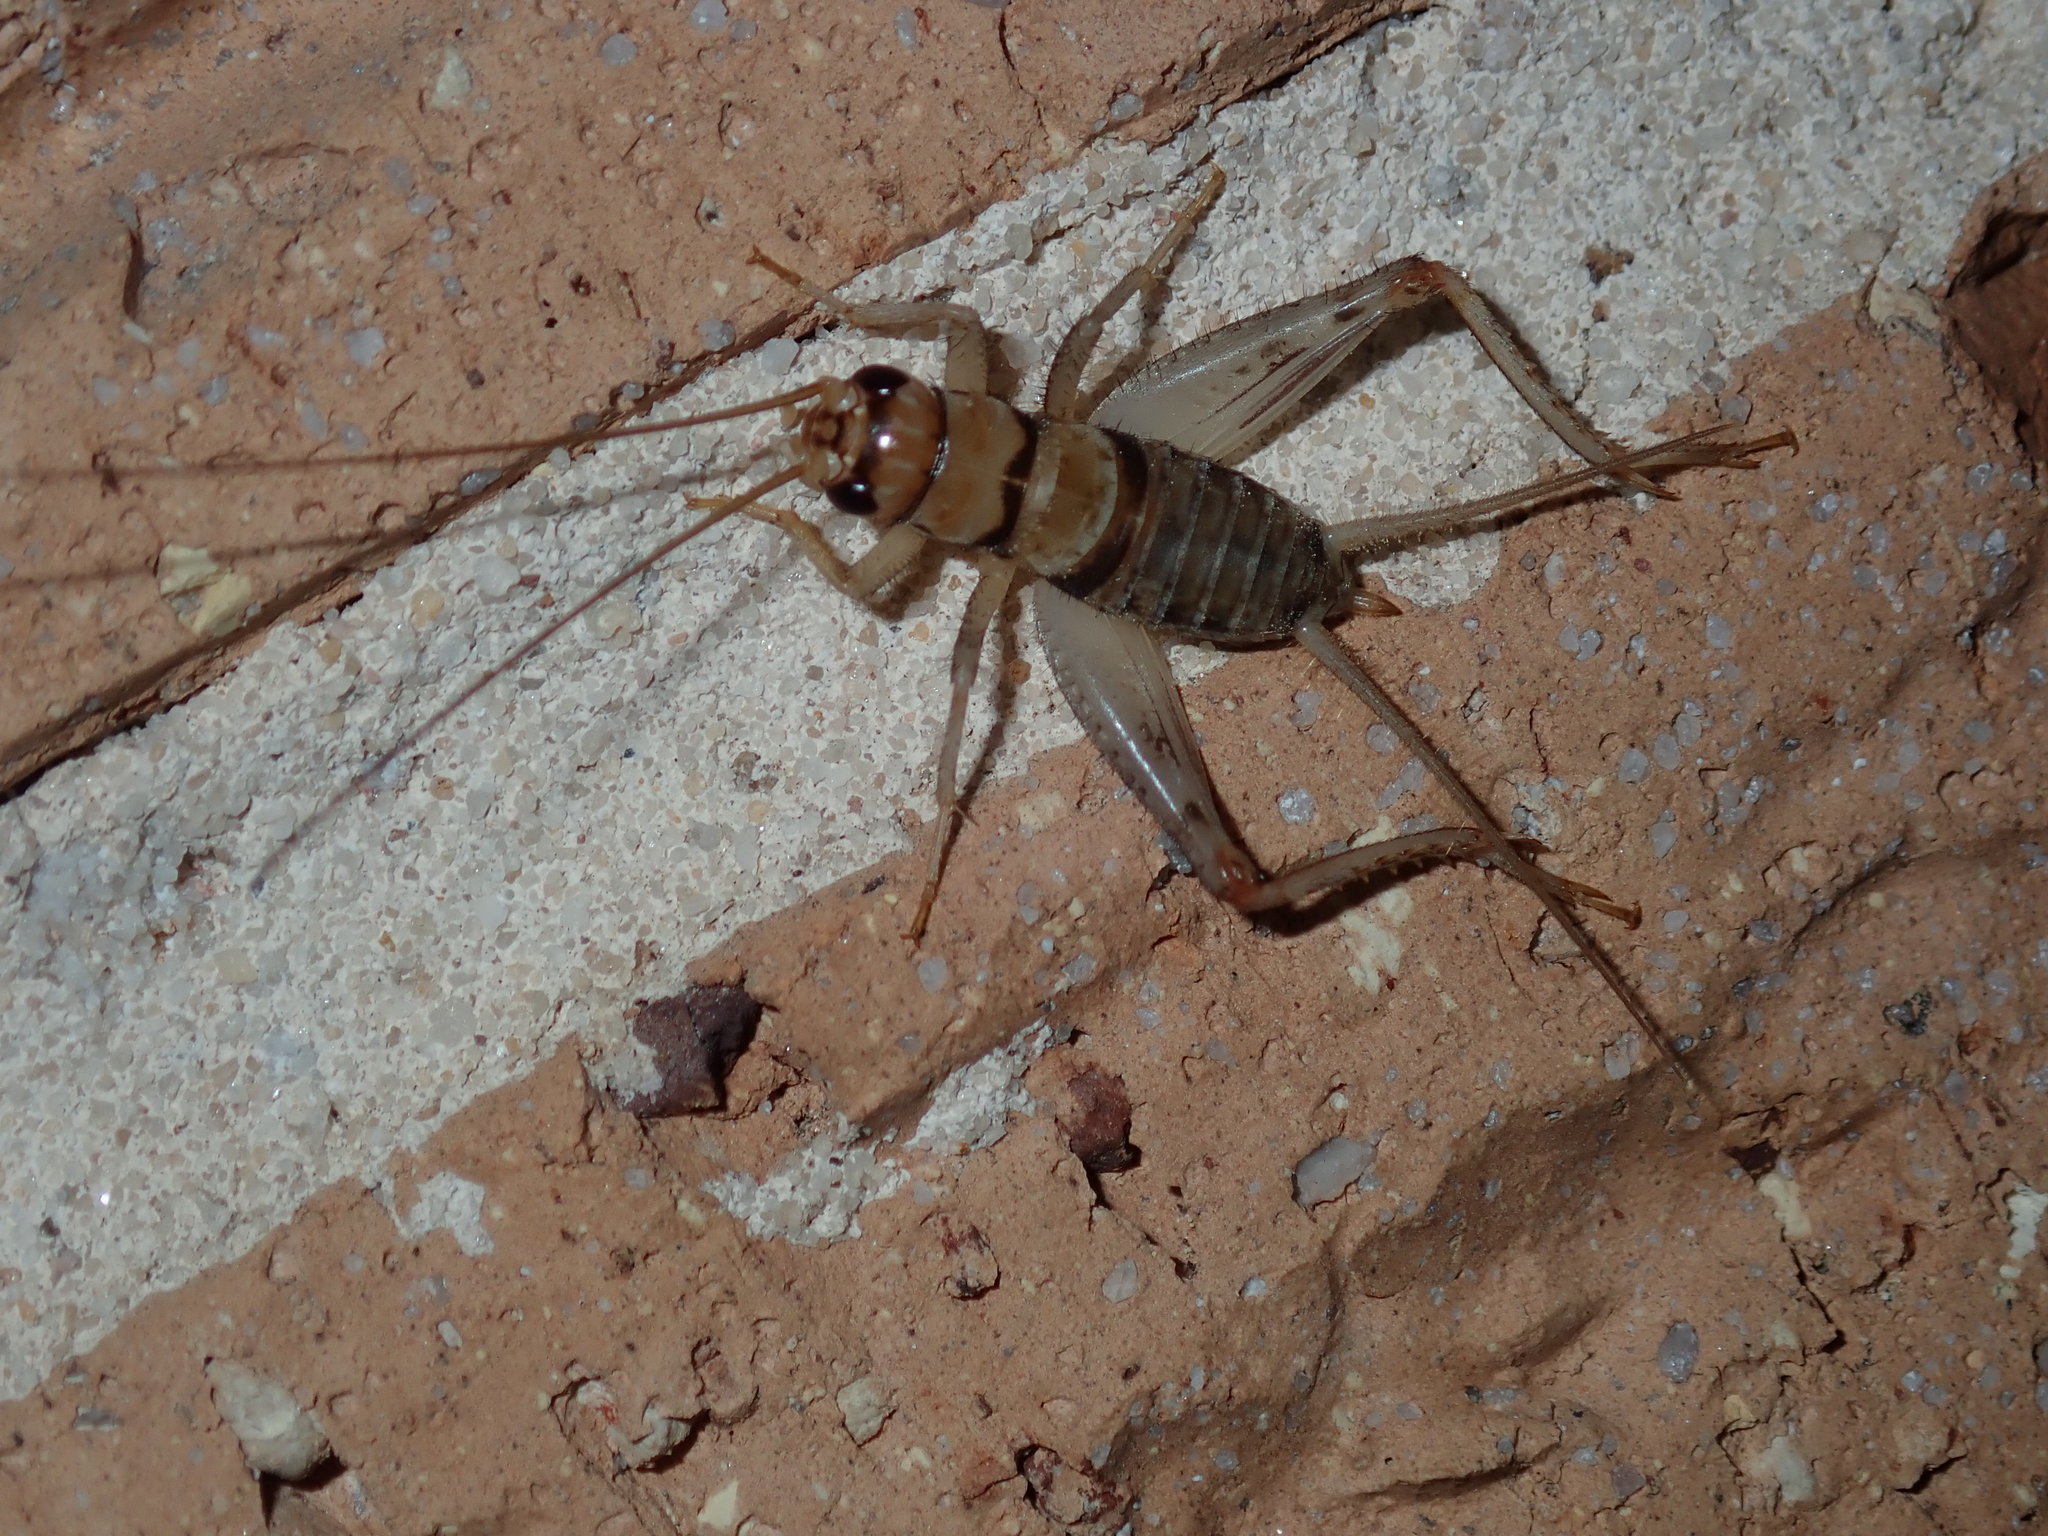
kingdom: Animalia
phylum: Arthropoda
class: Insecta
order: Orthoptera
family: Gryllidae
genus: Gryllodes
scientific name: Gryllodes sigillatus
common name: Tropical house cricket
